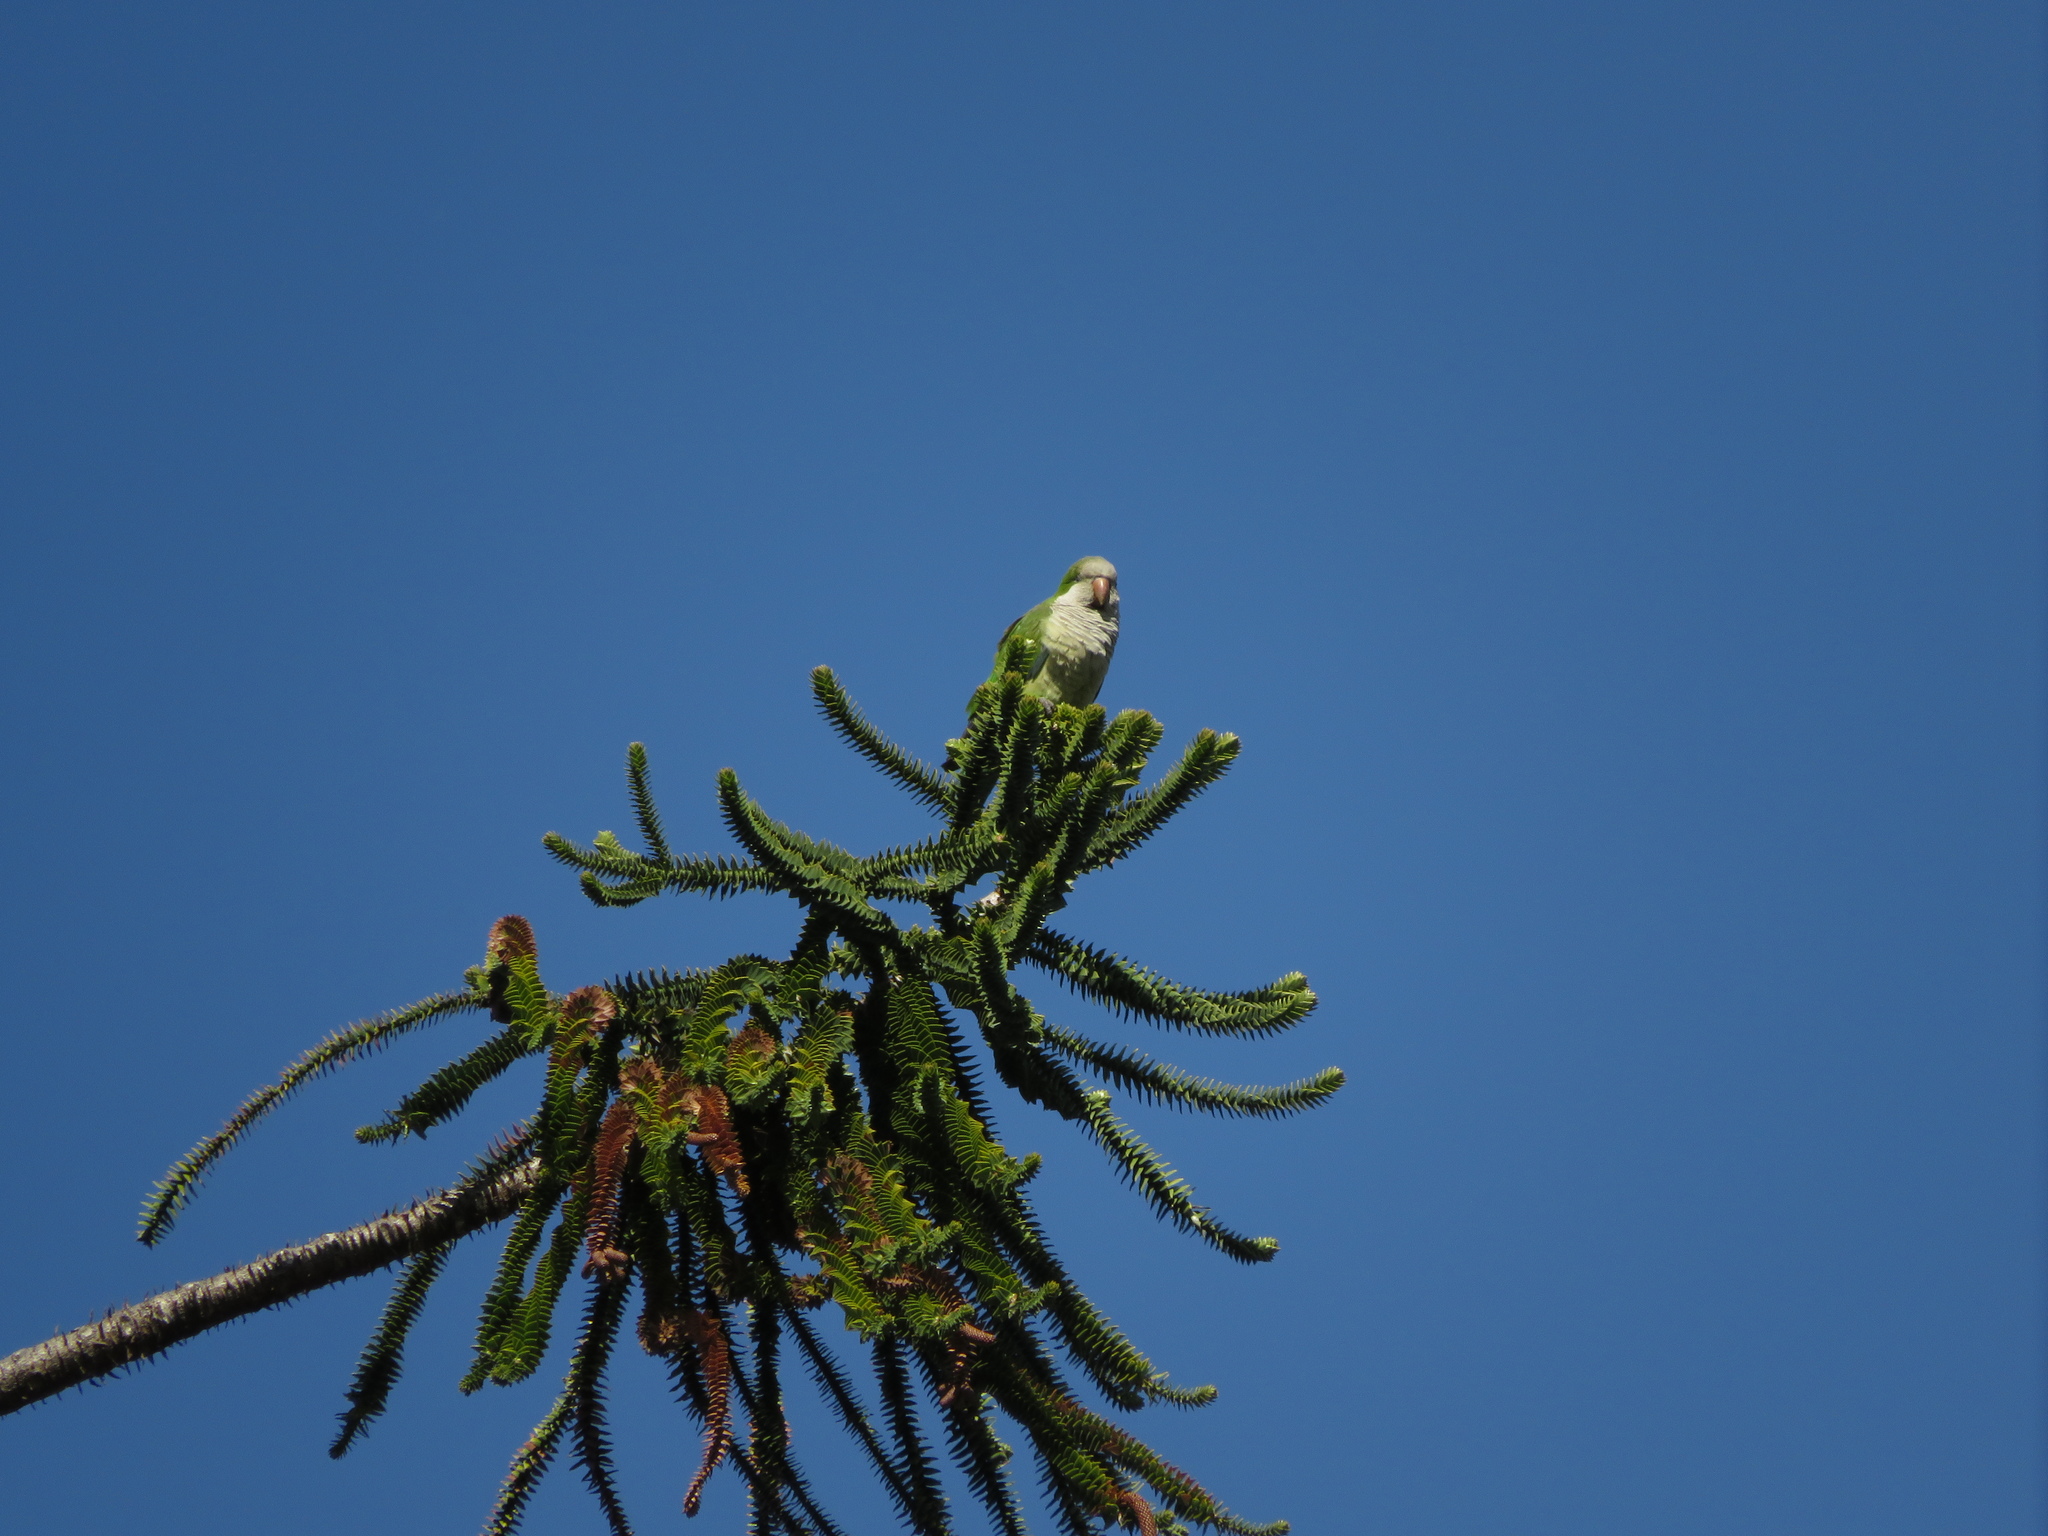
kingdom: Animalia
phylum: Chordata
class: Aves
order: Psittaciformes
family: Psittacidae
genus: Myiopsitta
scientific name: Myiopsitta monachus
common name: Monk parakeet
